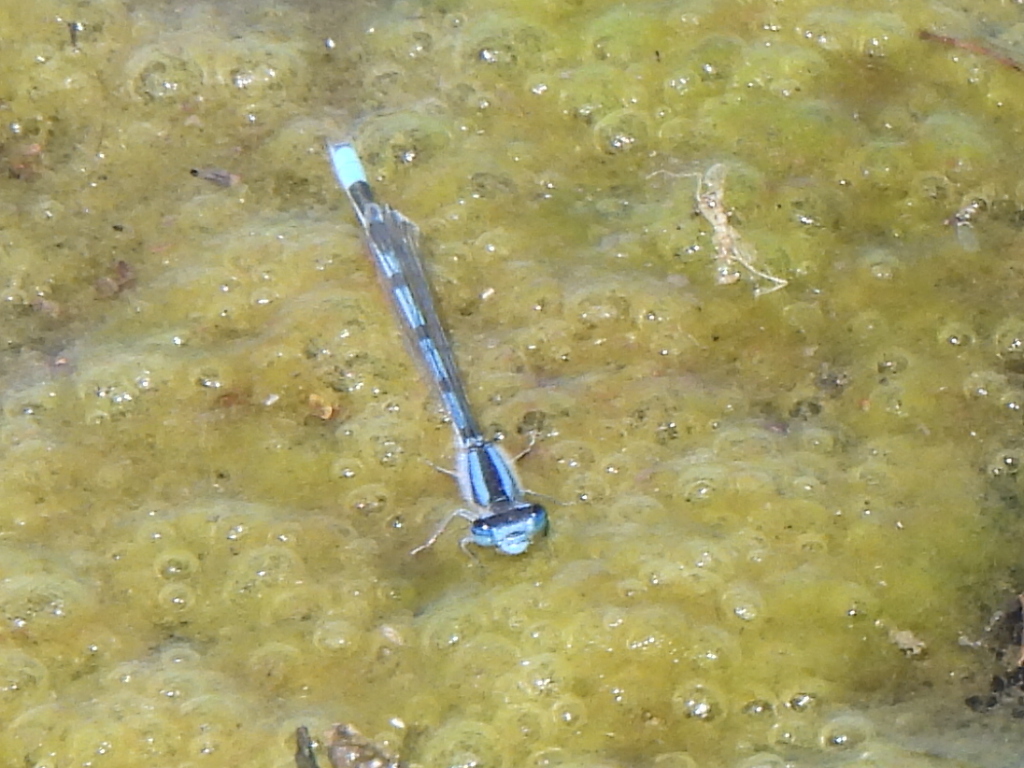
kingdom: Animalia
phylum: Arthropoda
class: Insecta
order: Odonata
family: Coenagrionidae
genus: Enallagma
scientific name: Enallagma civile
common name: Damselfly
